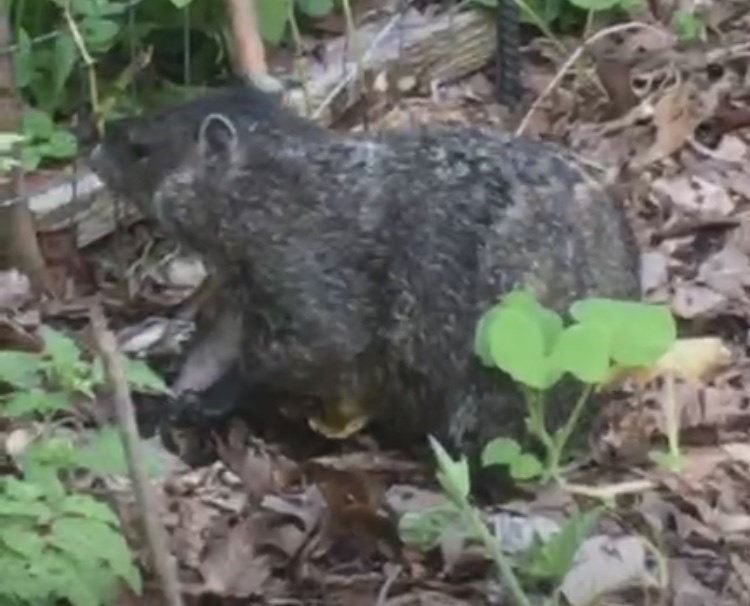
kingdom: Animalia
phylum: Chordata
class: Mammalia
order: Rodentia
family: Sciuridae
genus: Marmota
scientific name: Marmota monax
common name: Groundhog
